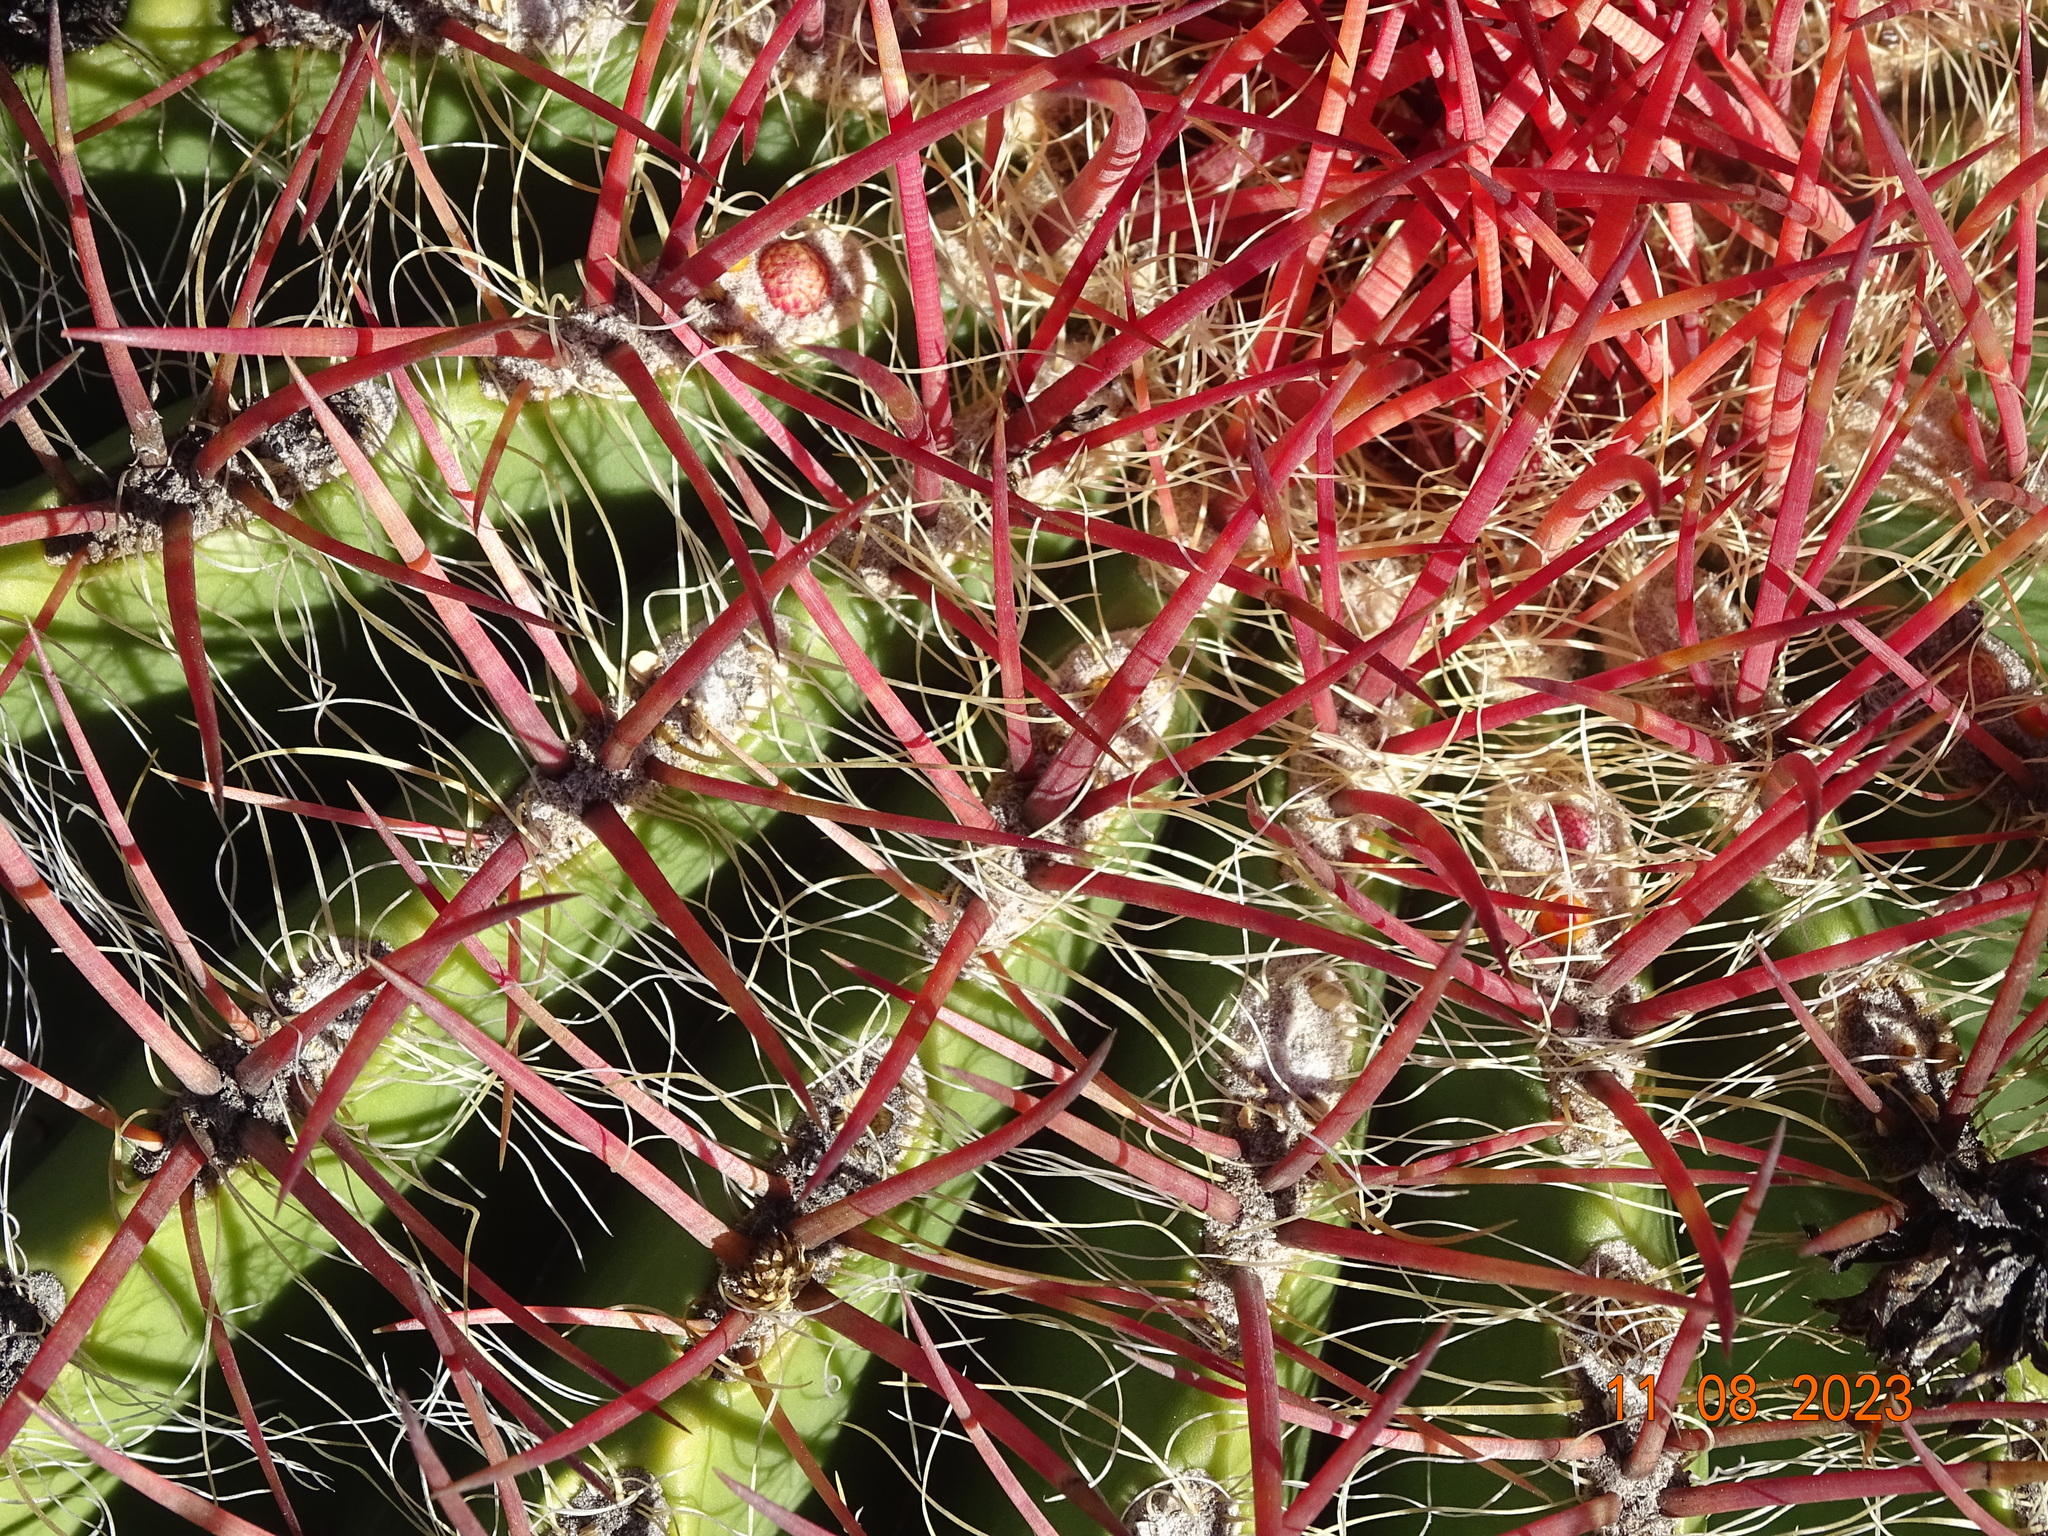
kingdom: Plantae
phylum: Tracheophyta
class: Magnoliopsida
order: Caryophyllales
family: Cactaceae
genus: Ferocactus
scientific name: Ferocactus pilosus
